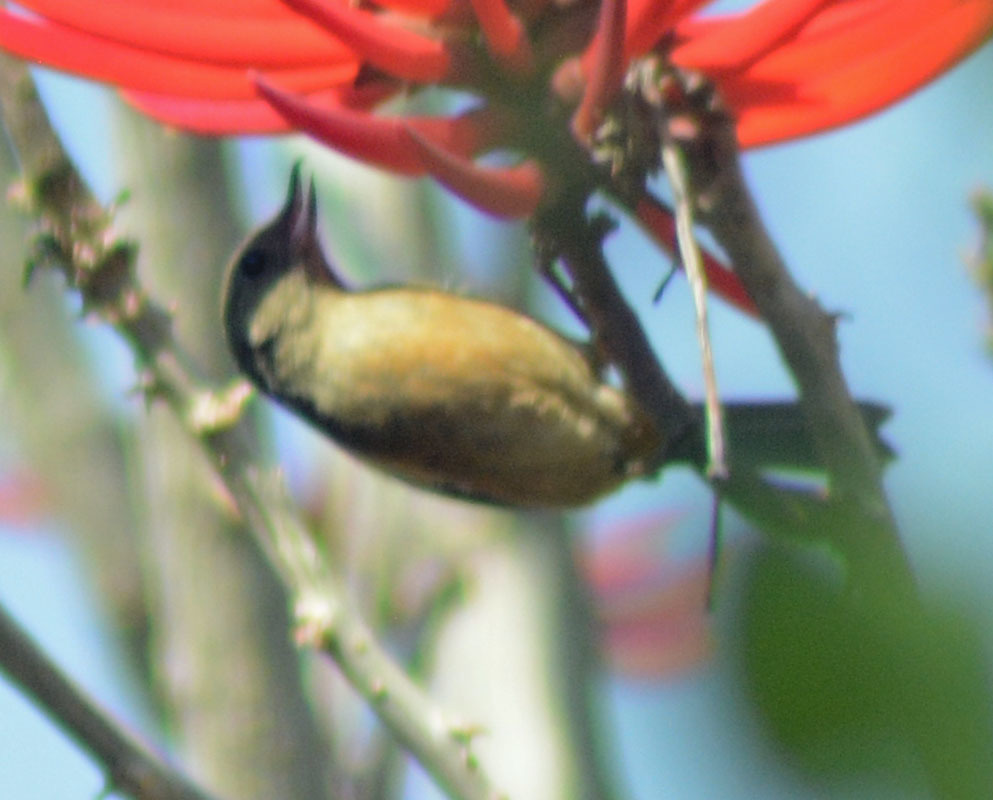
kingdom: Animalia
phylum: Chordata
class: Aves
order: Passeriformes
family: Thraupidae
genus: Diglossa
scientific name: Diglossa baritula
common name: Cinnamon-bellied flowerpiercer
